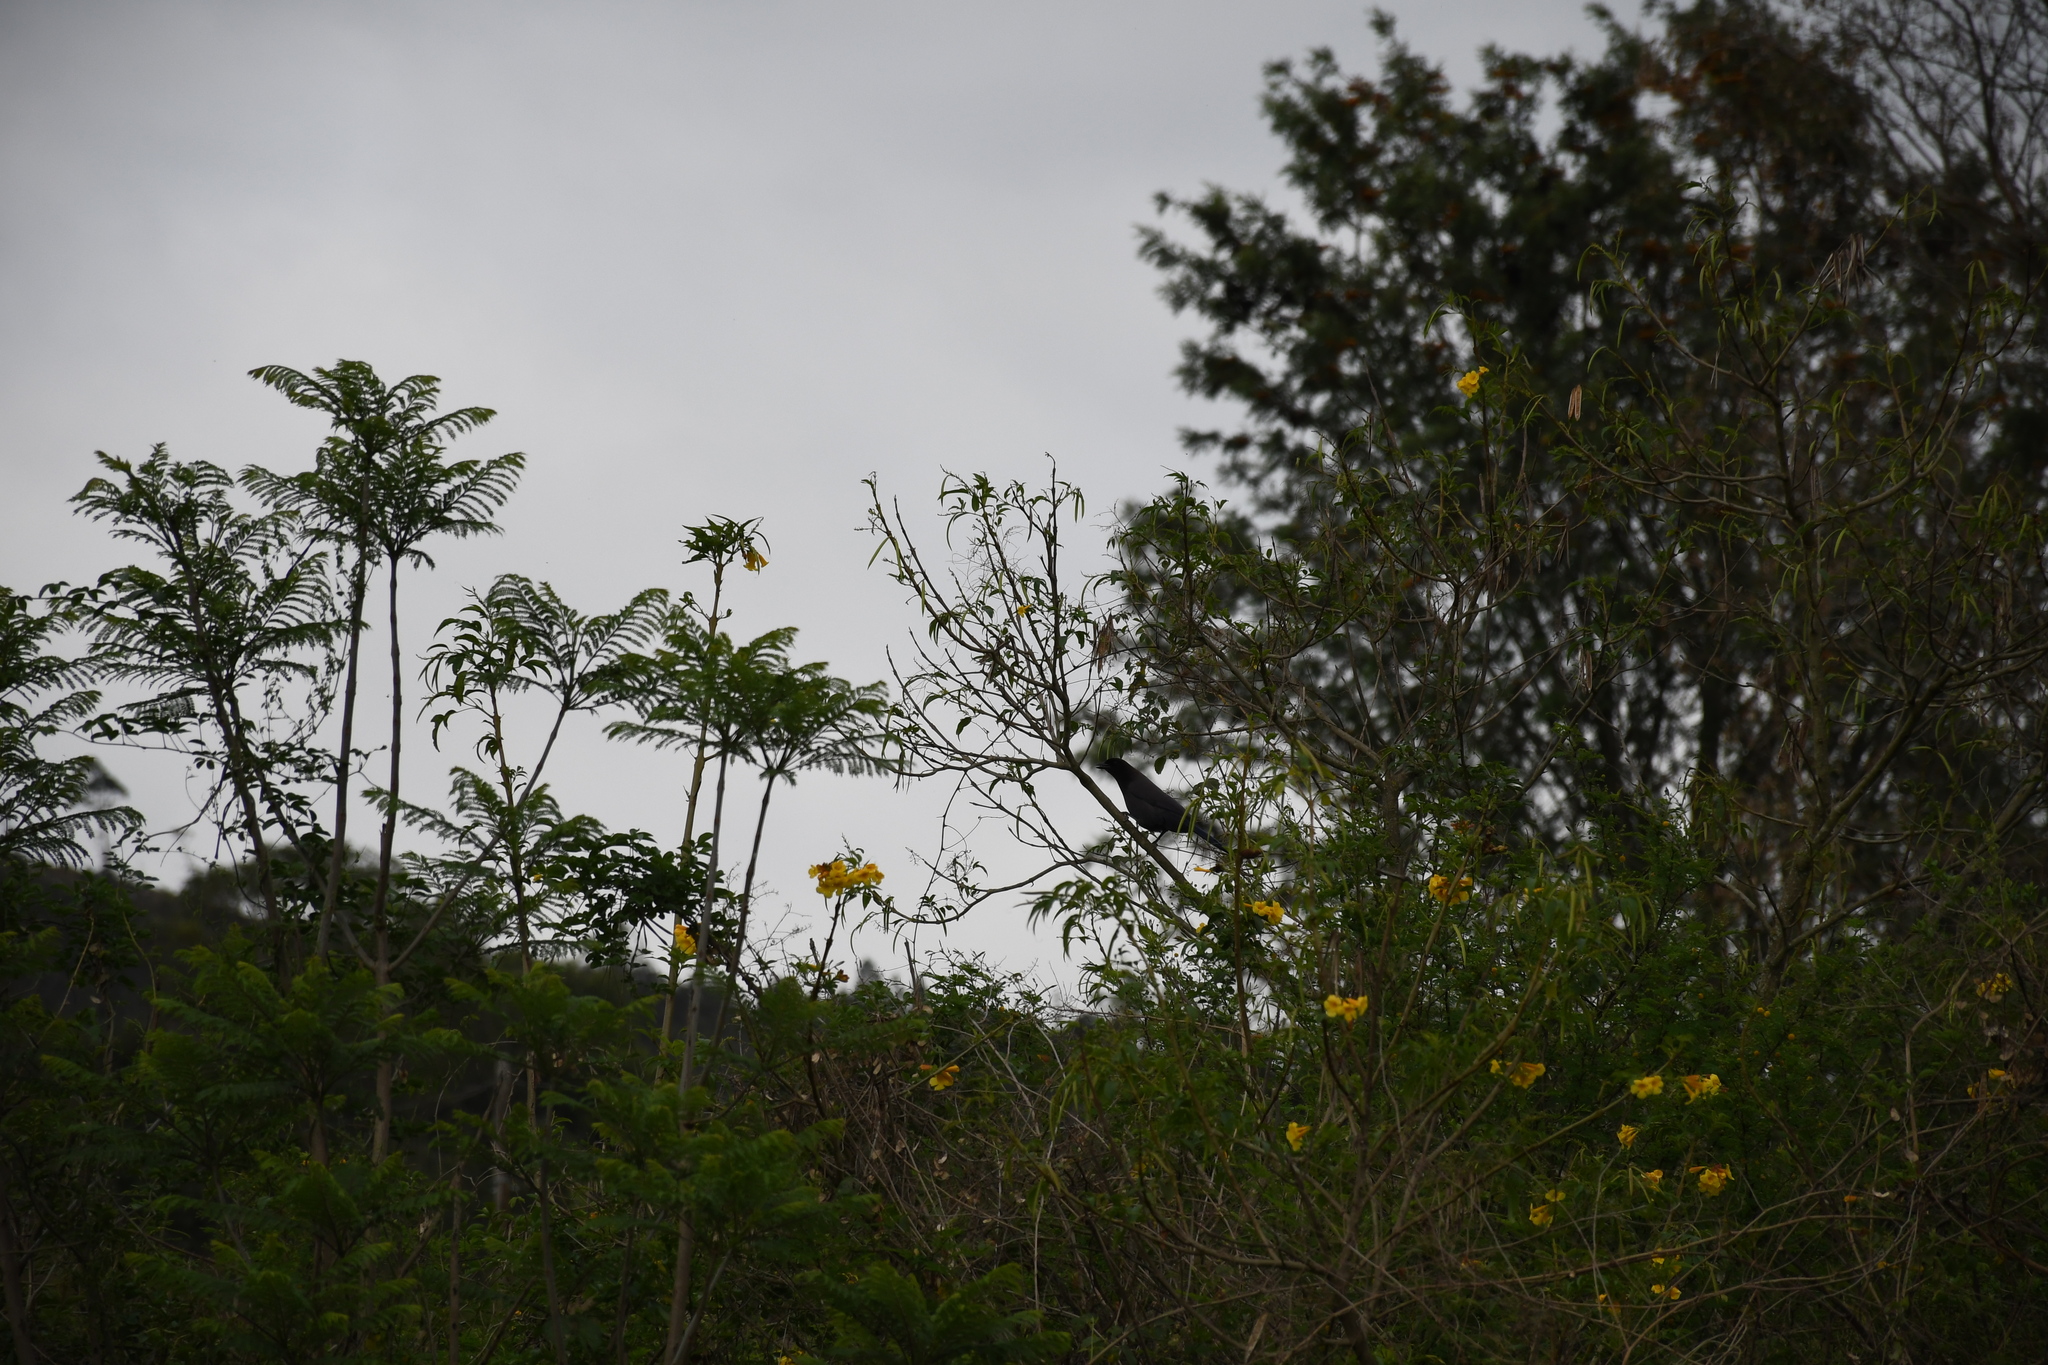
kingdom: Animalia
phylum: Chordata
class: Aves
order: Passeriformes
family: Corvidae
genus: Cyanocorax
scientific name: Cyanocorax cyanomelas
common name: Purplish jay
